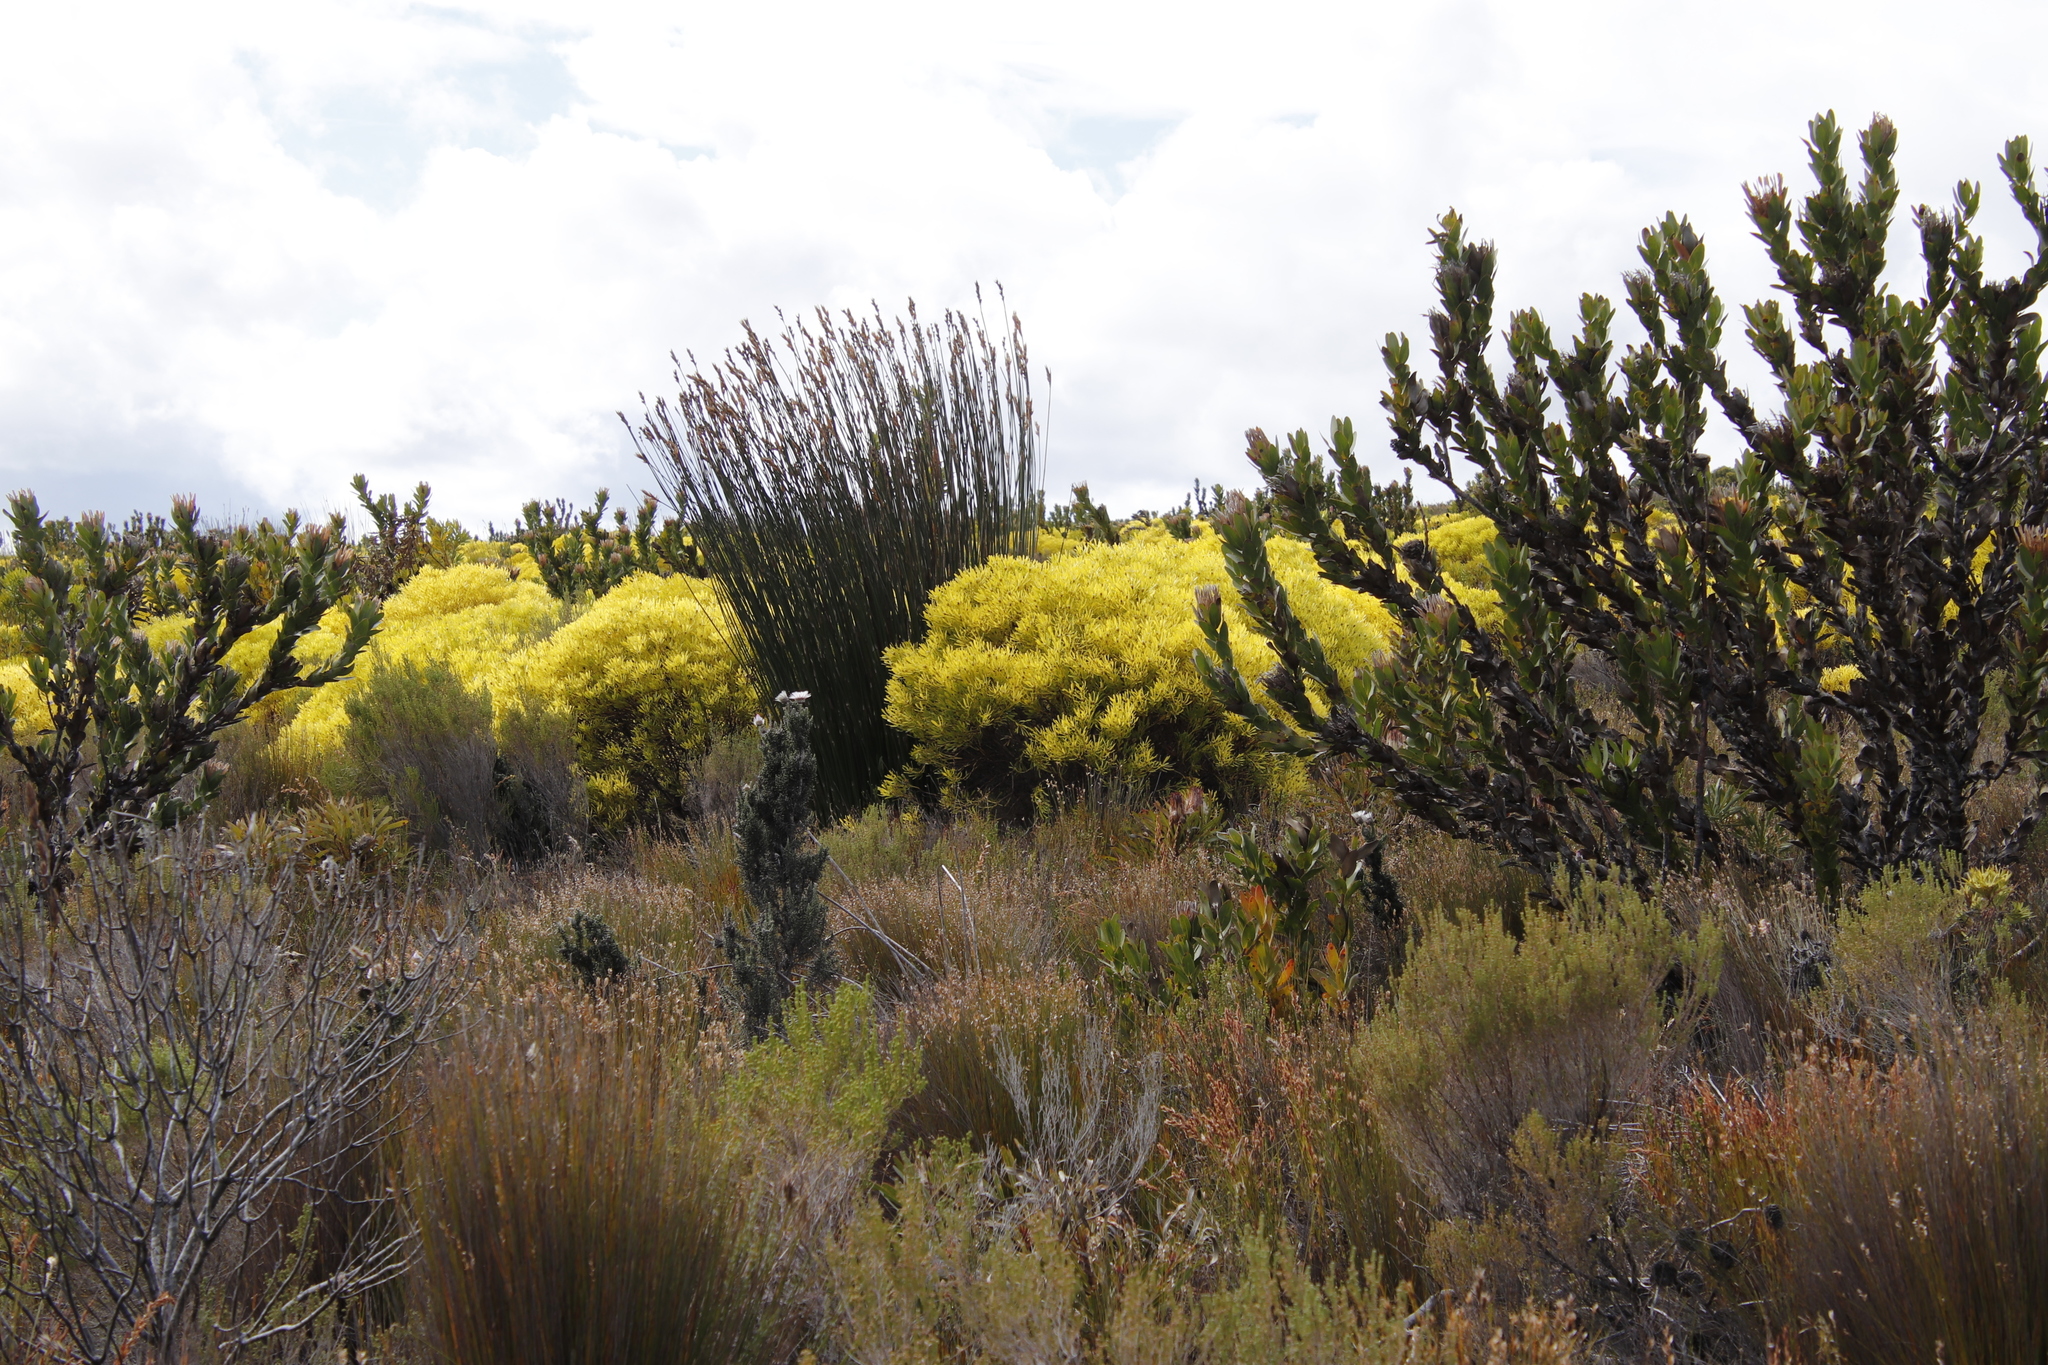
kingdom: Plantae
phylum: Tracheophyta
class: Magnoliopsida
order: Proteales
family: Proteaceae
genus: Leucadendron
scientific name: Leucadendron platyspermum
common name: Plate-seed conebush
